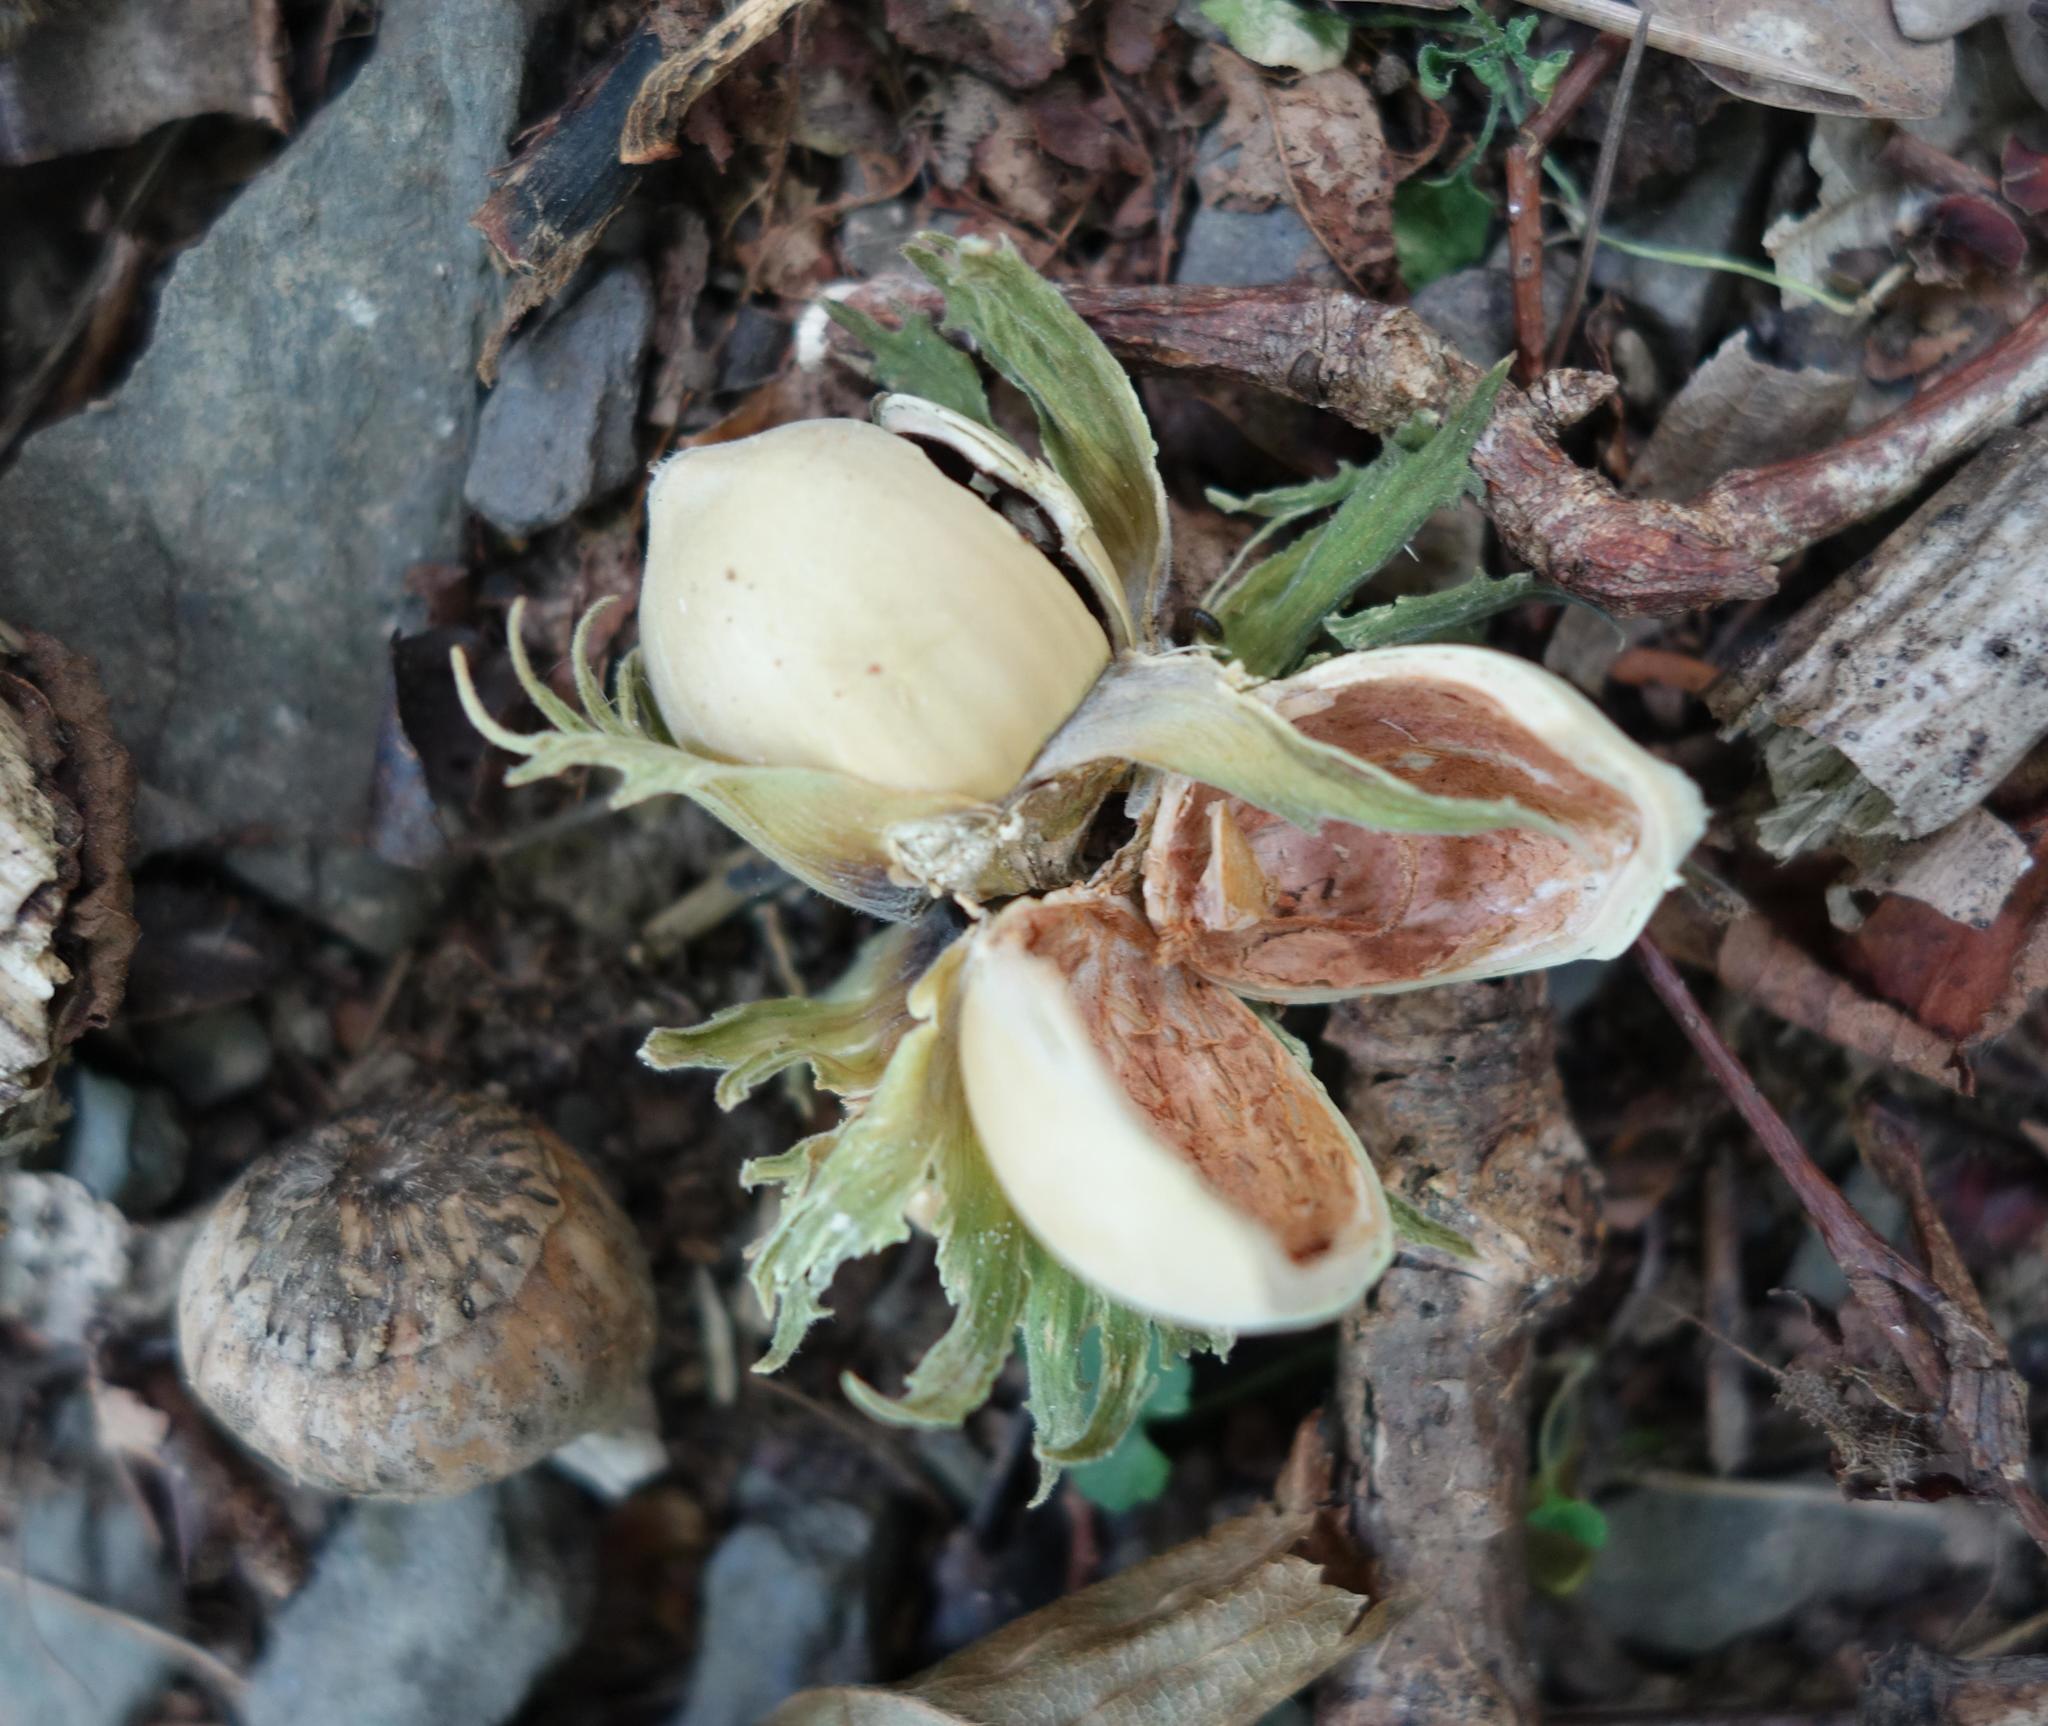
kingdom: Plantae
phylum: Tracheophyta
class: Magnoliopsida
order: Fagales
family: Betulaceae
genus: Corylus
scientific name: Corylus avellana
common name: European hazel
